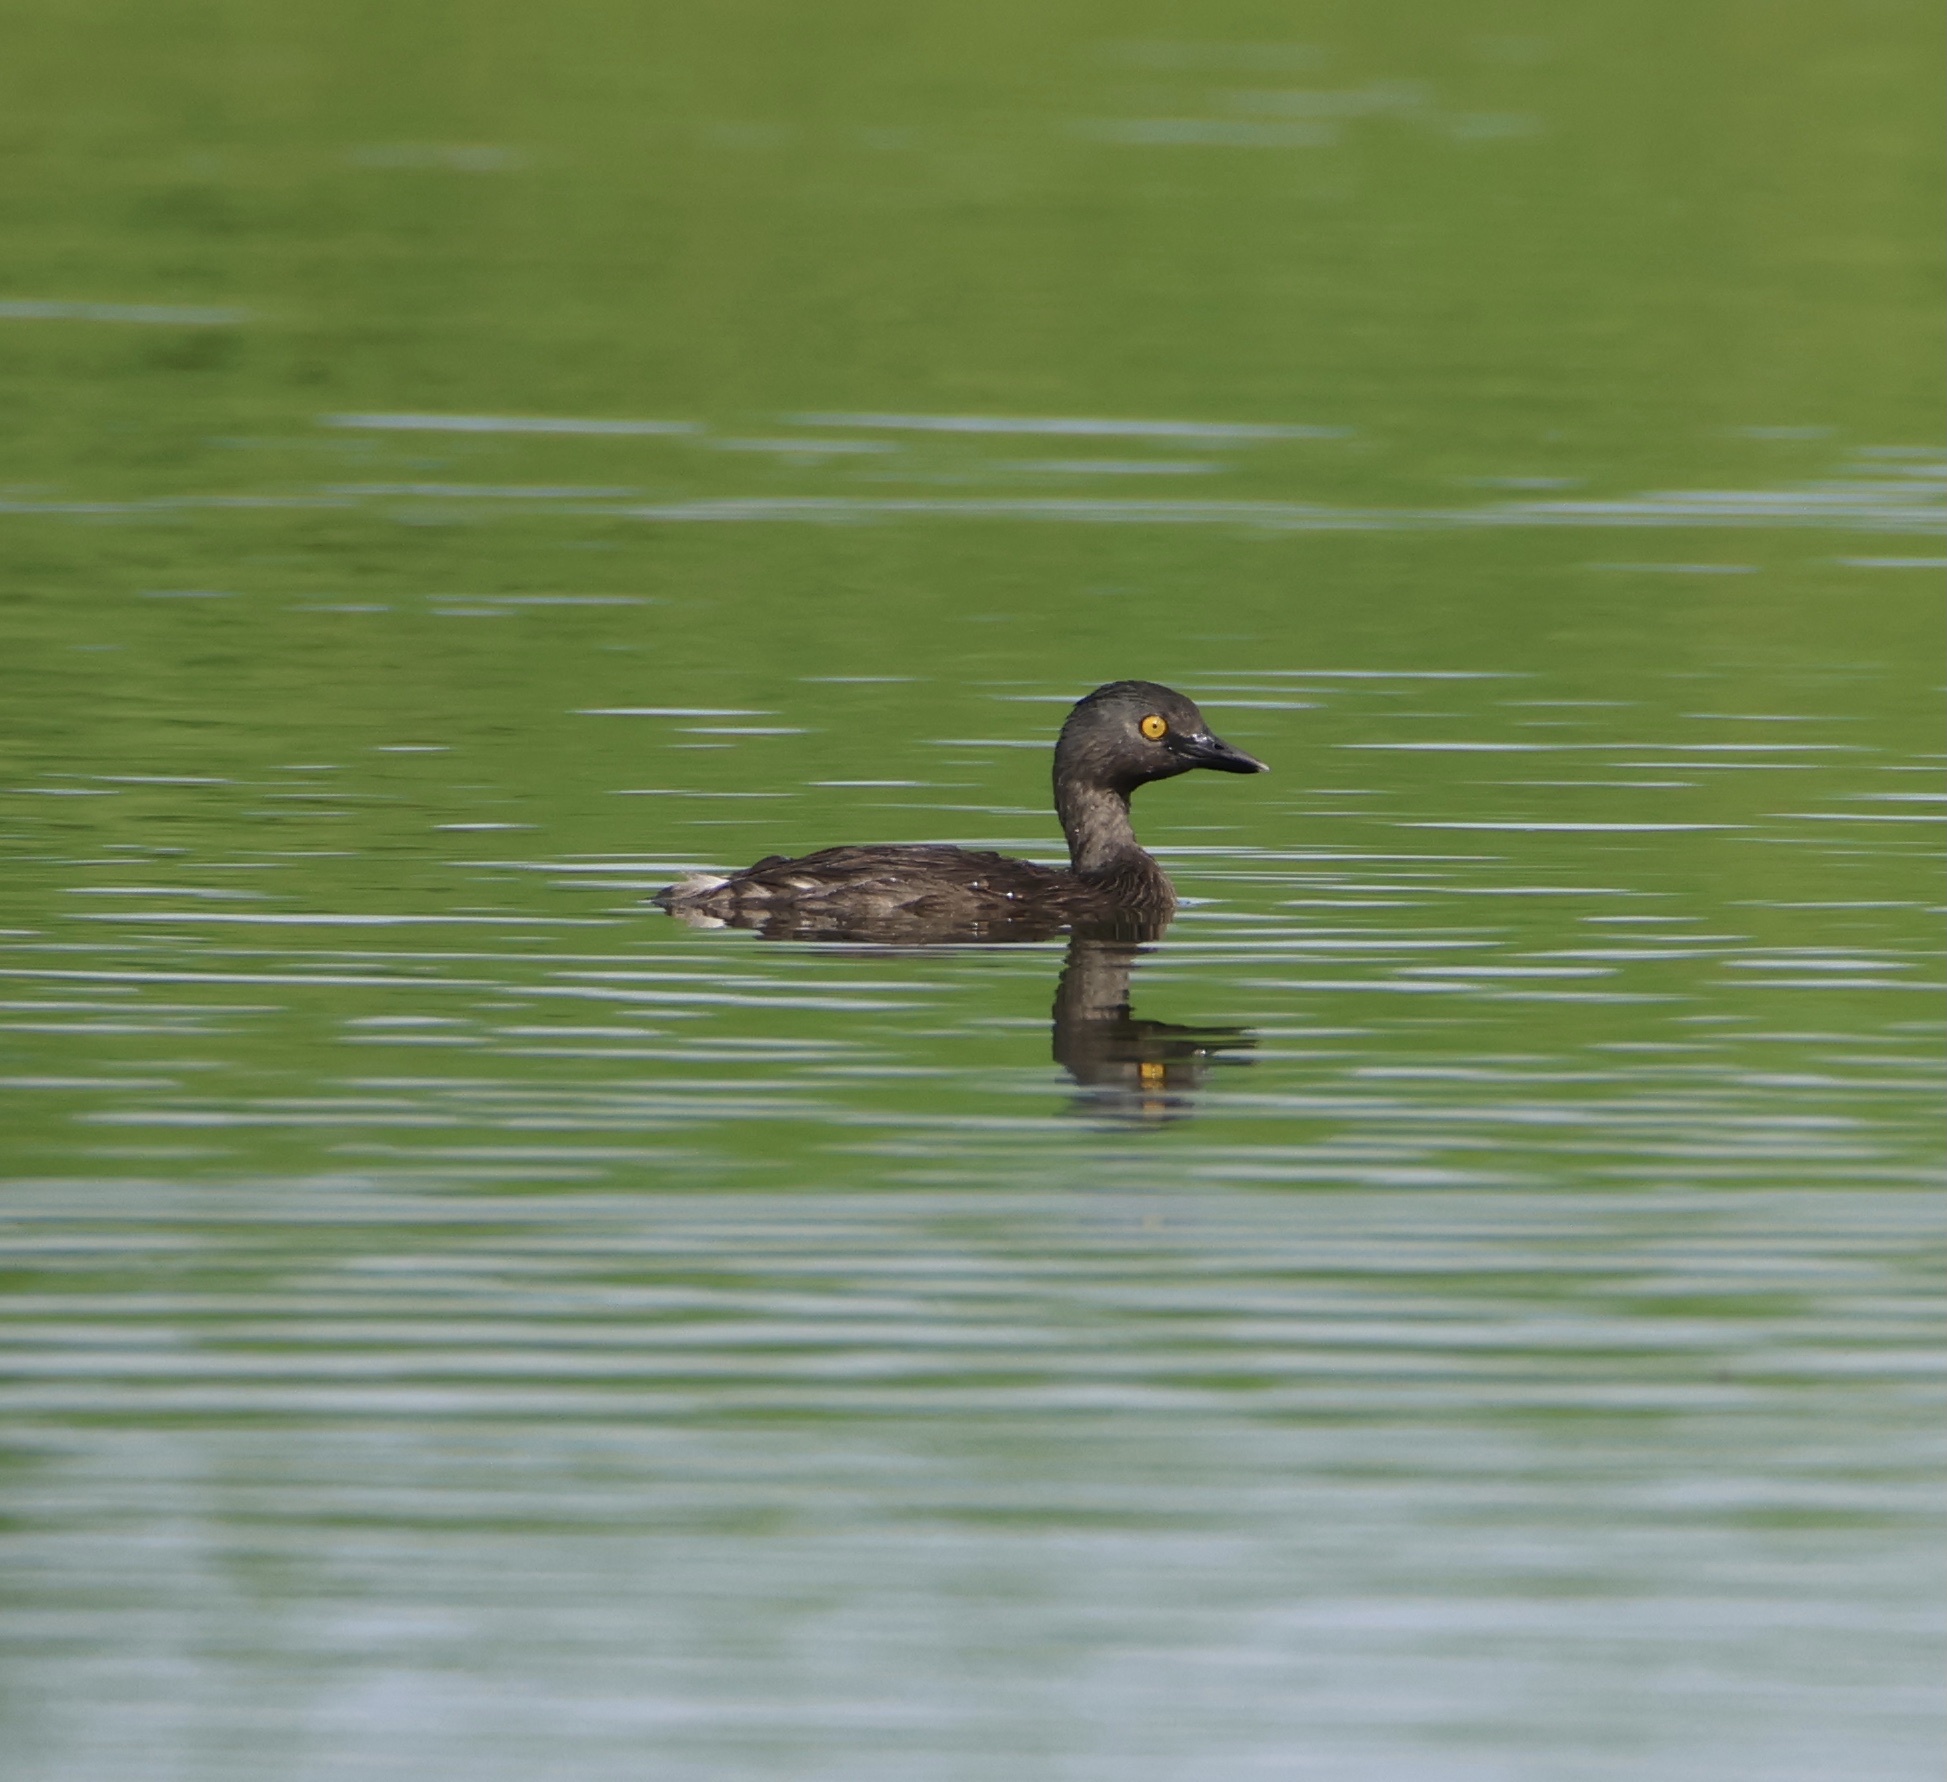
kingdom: Animalia
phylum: Chordata
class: Aves
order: Podicipediformes
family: Podicipedidae
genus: Tachybaptus
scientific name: Tachybaptus dominicus
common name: Least grebe
